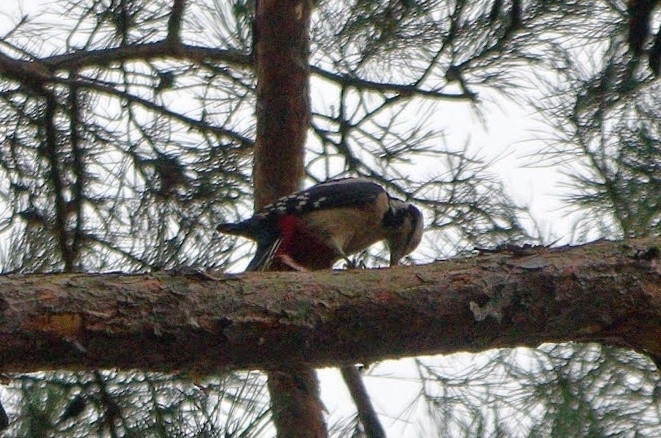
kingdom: Animalia
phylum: Chordata
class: Aves
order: Piciformes
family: Picidae
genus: Dendrocopos
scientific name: Dendrocopos major
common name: Great spotted woodpecker
